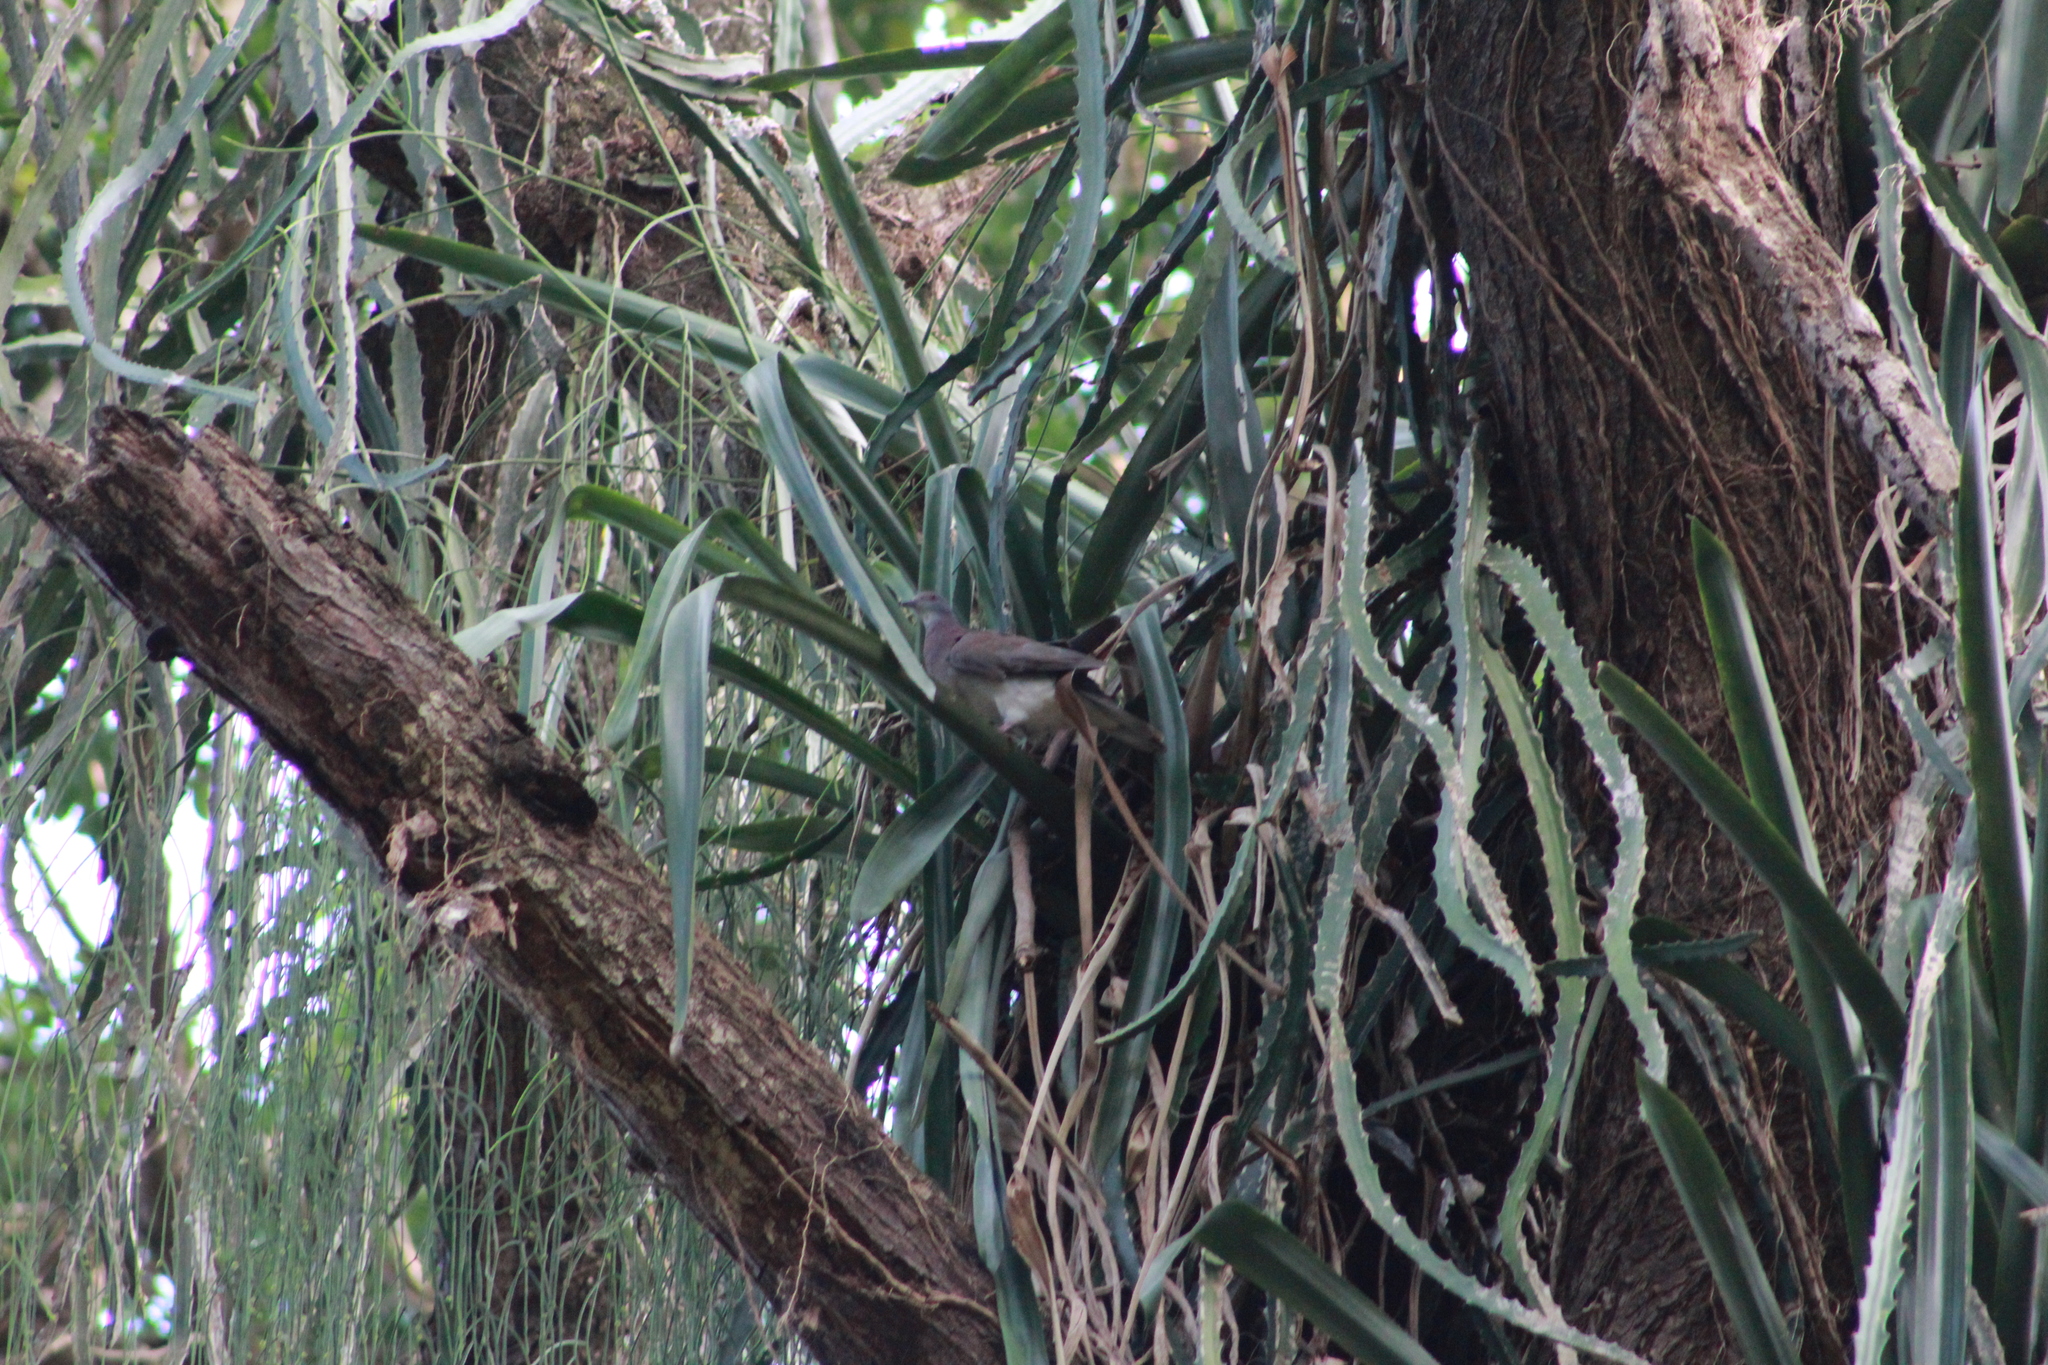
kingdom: Animalia
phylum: Chordata
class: Aves
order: Columbiformes
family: Columbidae
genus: Patagioenas
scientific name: Patagioenas cayennensis
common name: Pale-vented pigeon
